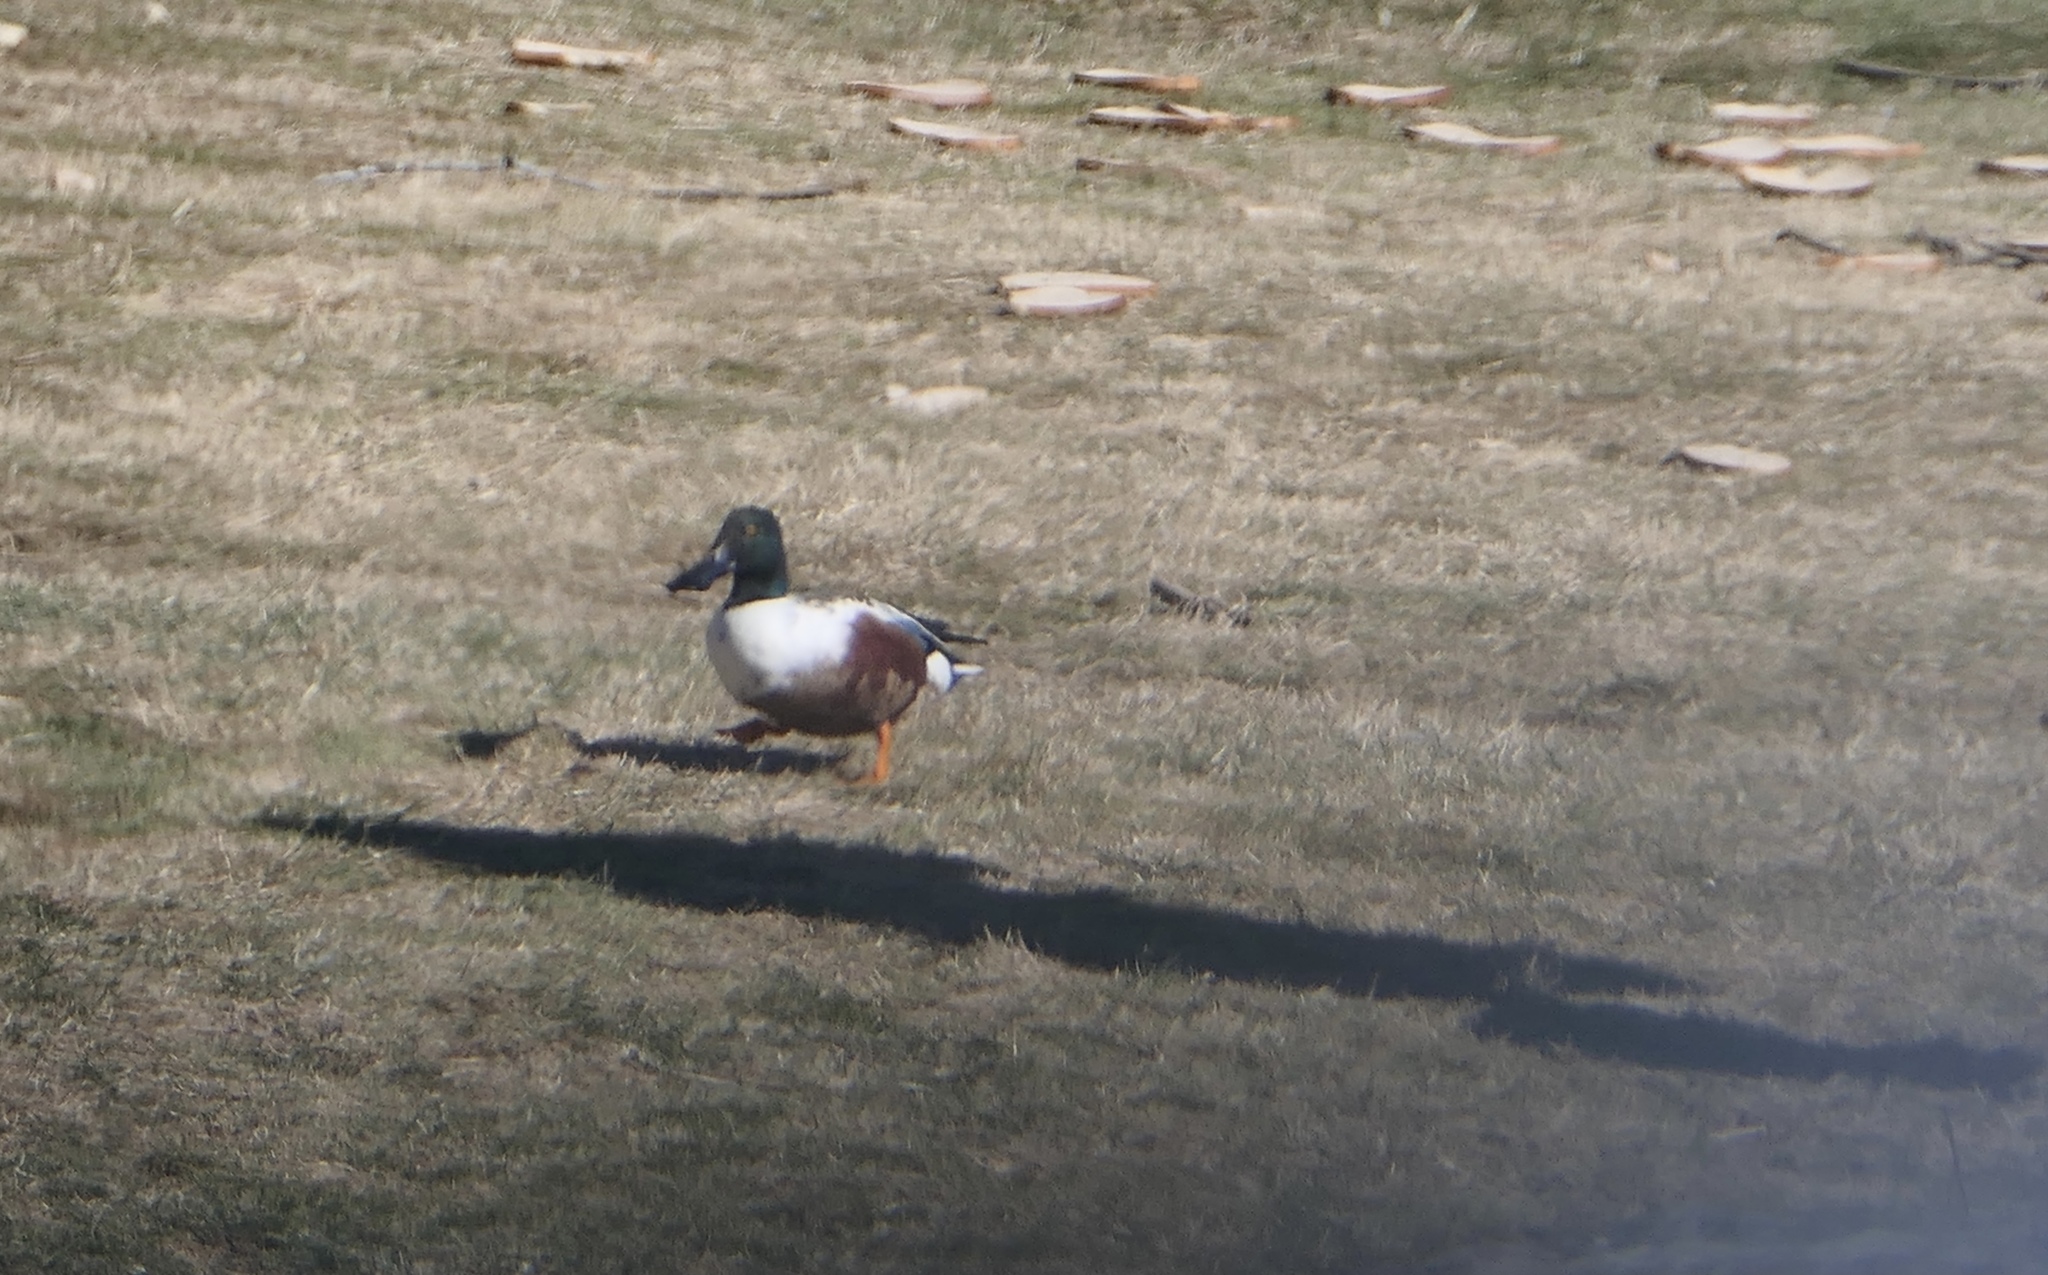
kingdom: Animalia
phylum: Chordata
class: Aves
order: Anseriformes
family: Anatidae
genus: Spatula
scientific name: Spatula clypeata
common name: Northern shoveler
